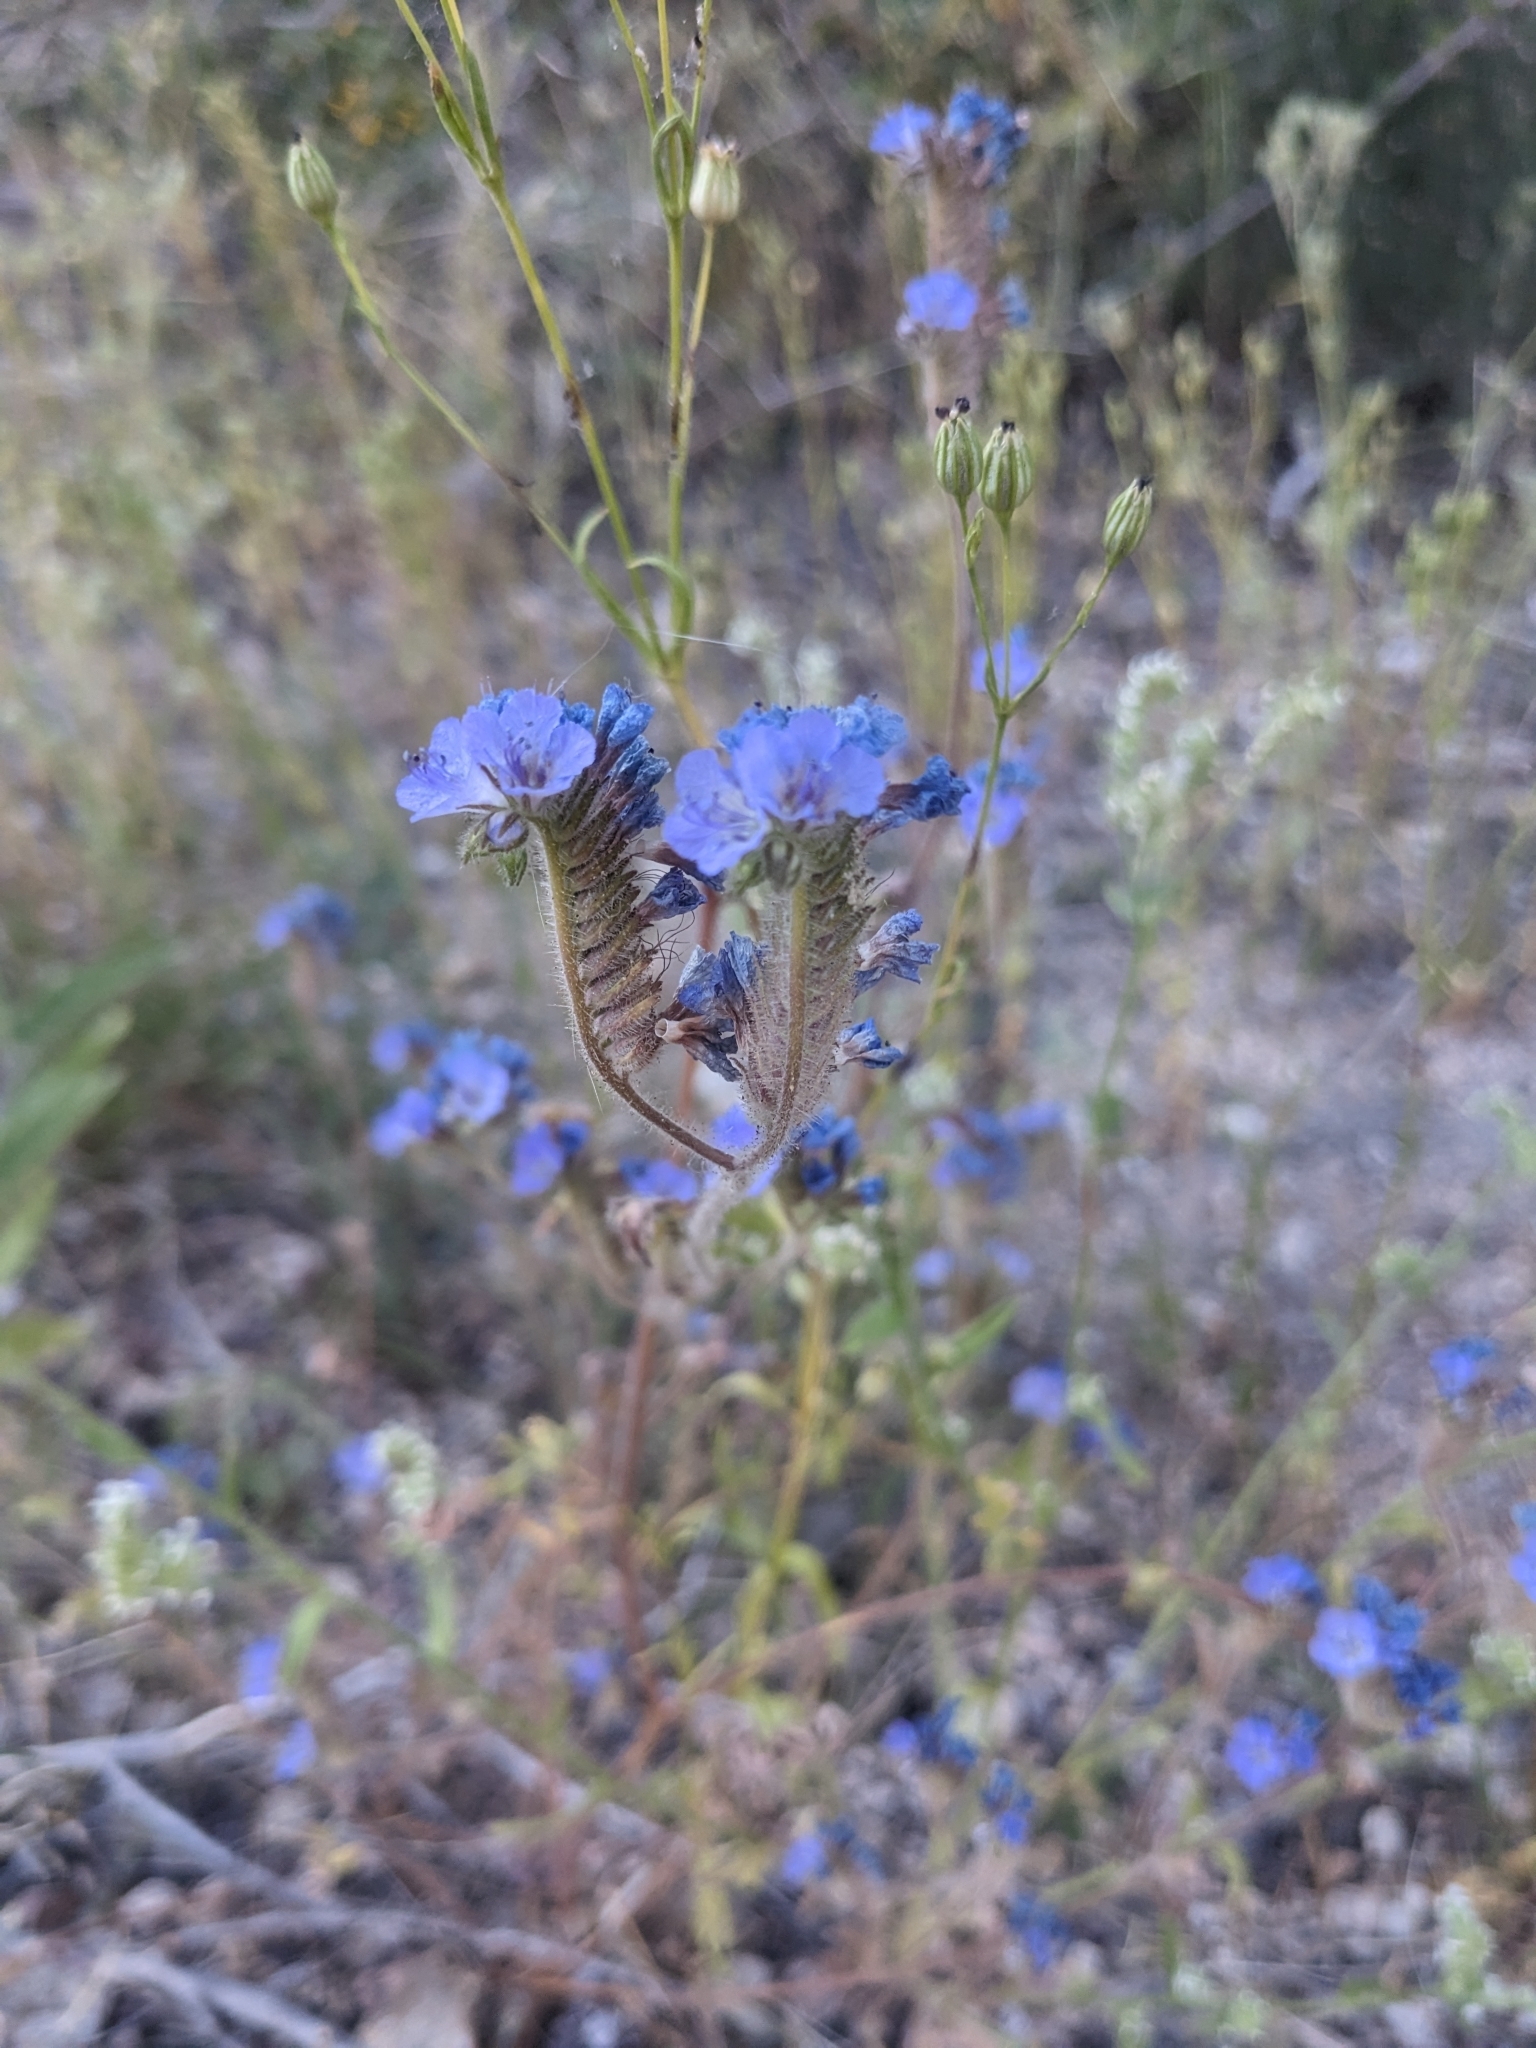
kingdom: Plantae
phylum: Tracheophyta
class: Magnoliopsida
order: Boraginales
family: Hydrophyllaceae
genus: Phacelia
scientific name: Phacelia distans
